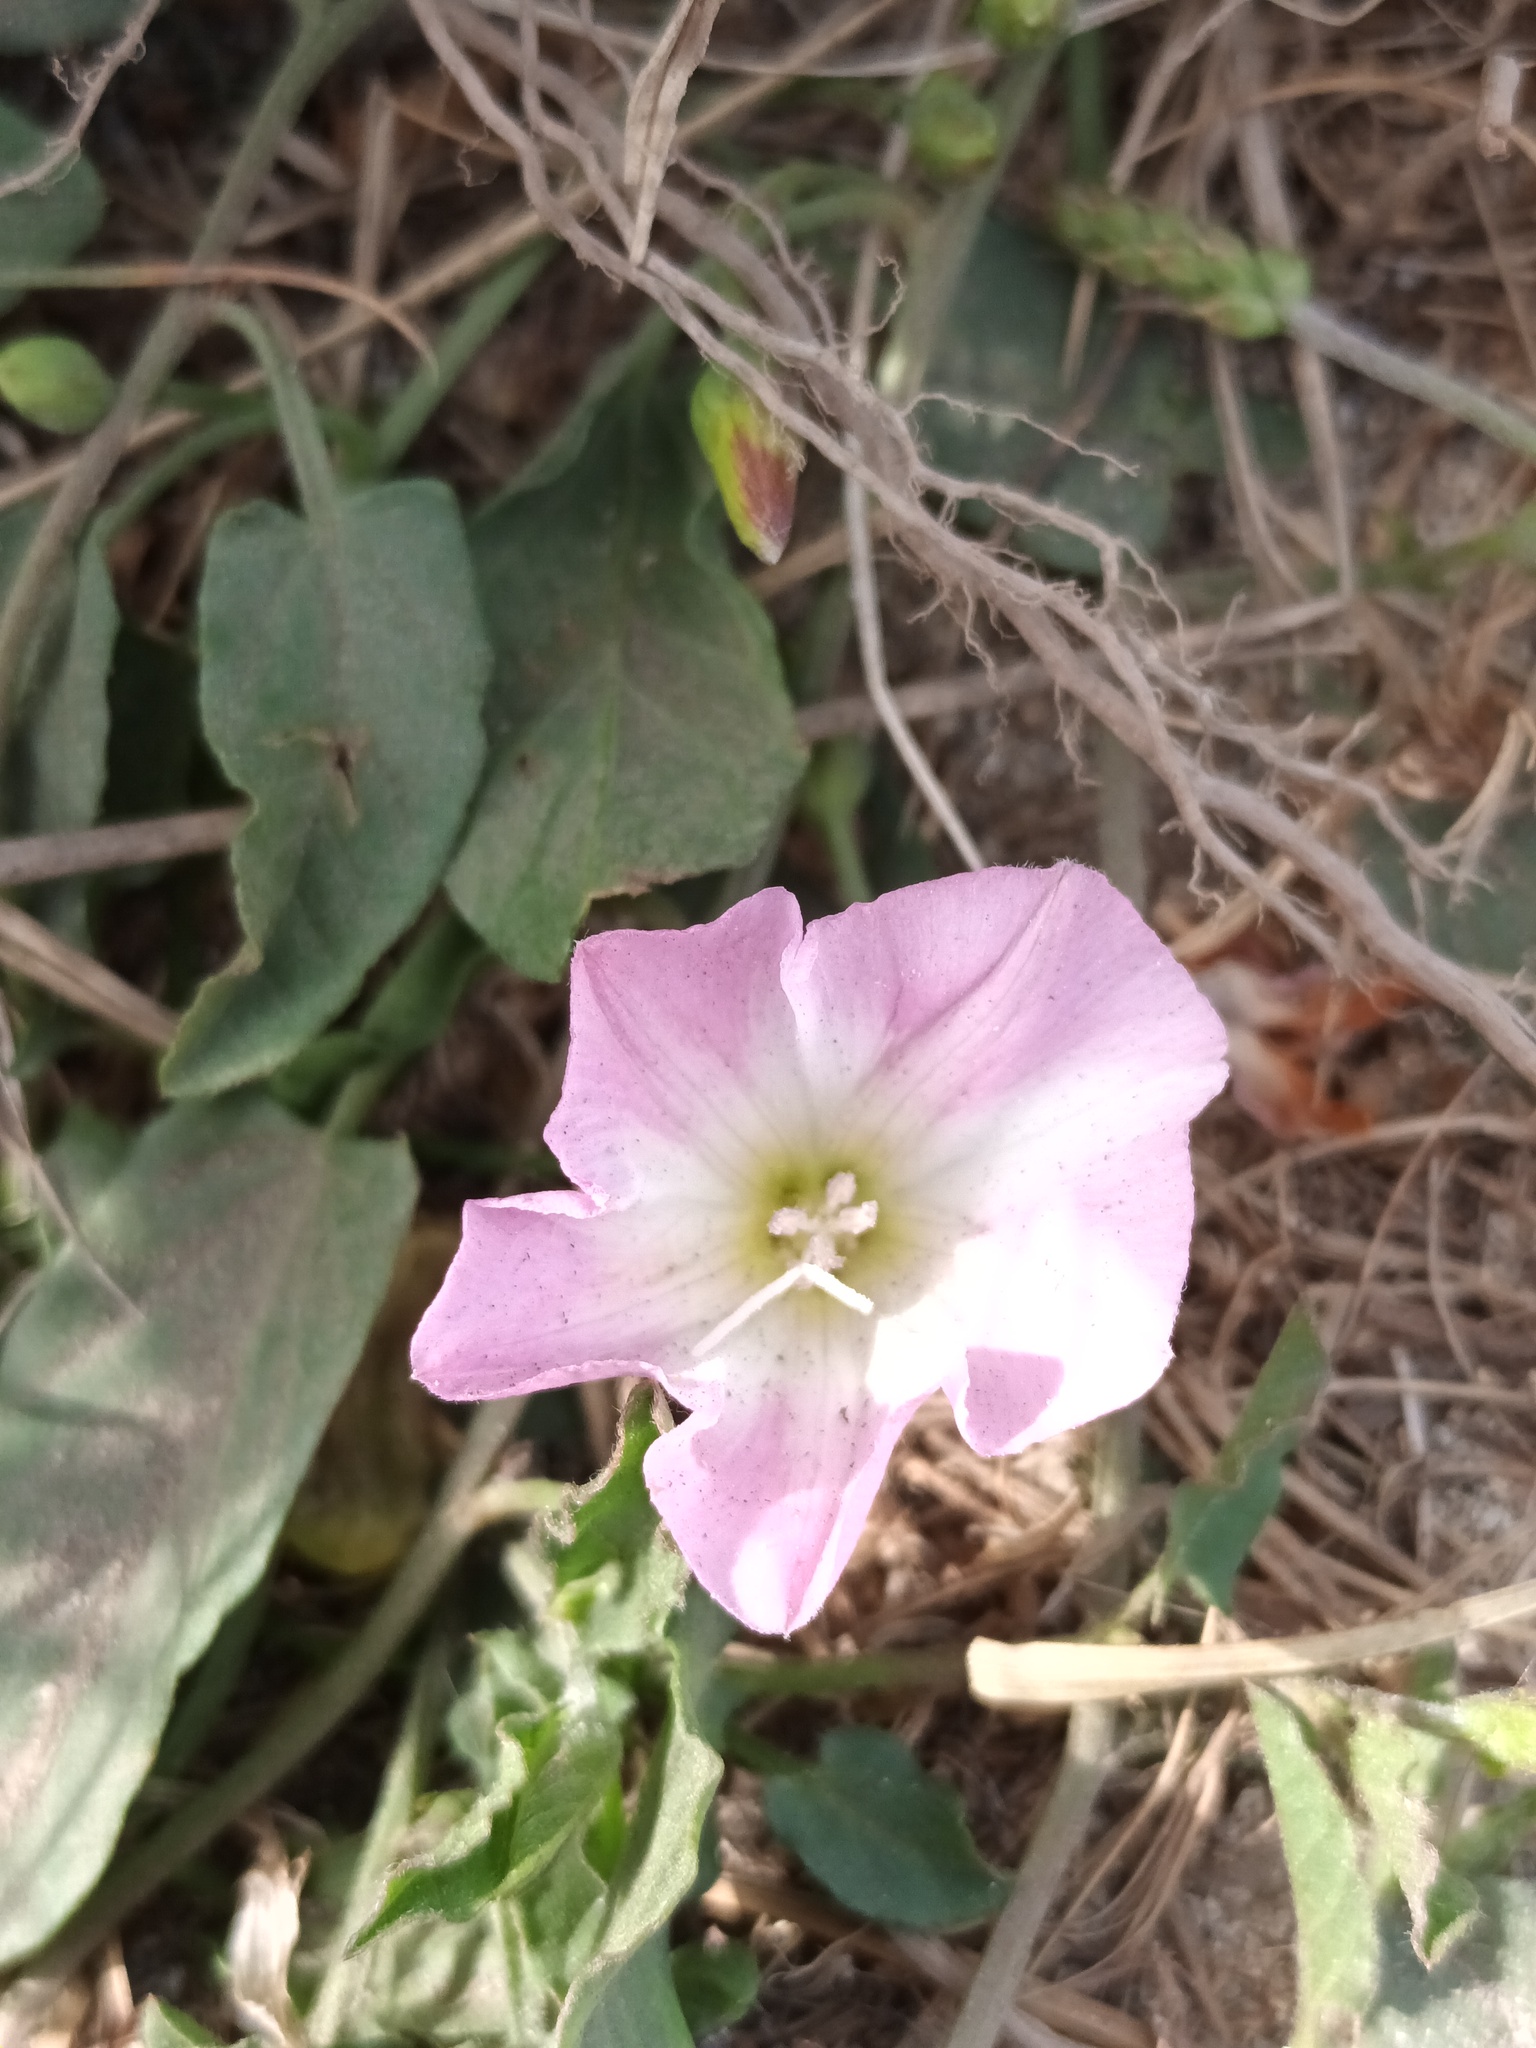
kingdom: Plantae
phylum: Tracheophyta
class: Magnoliopsida
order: Solanales
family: Convolvulaceae
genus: Convolvulus
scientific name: Convolvulus arvensis
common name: Field bindweed
